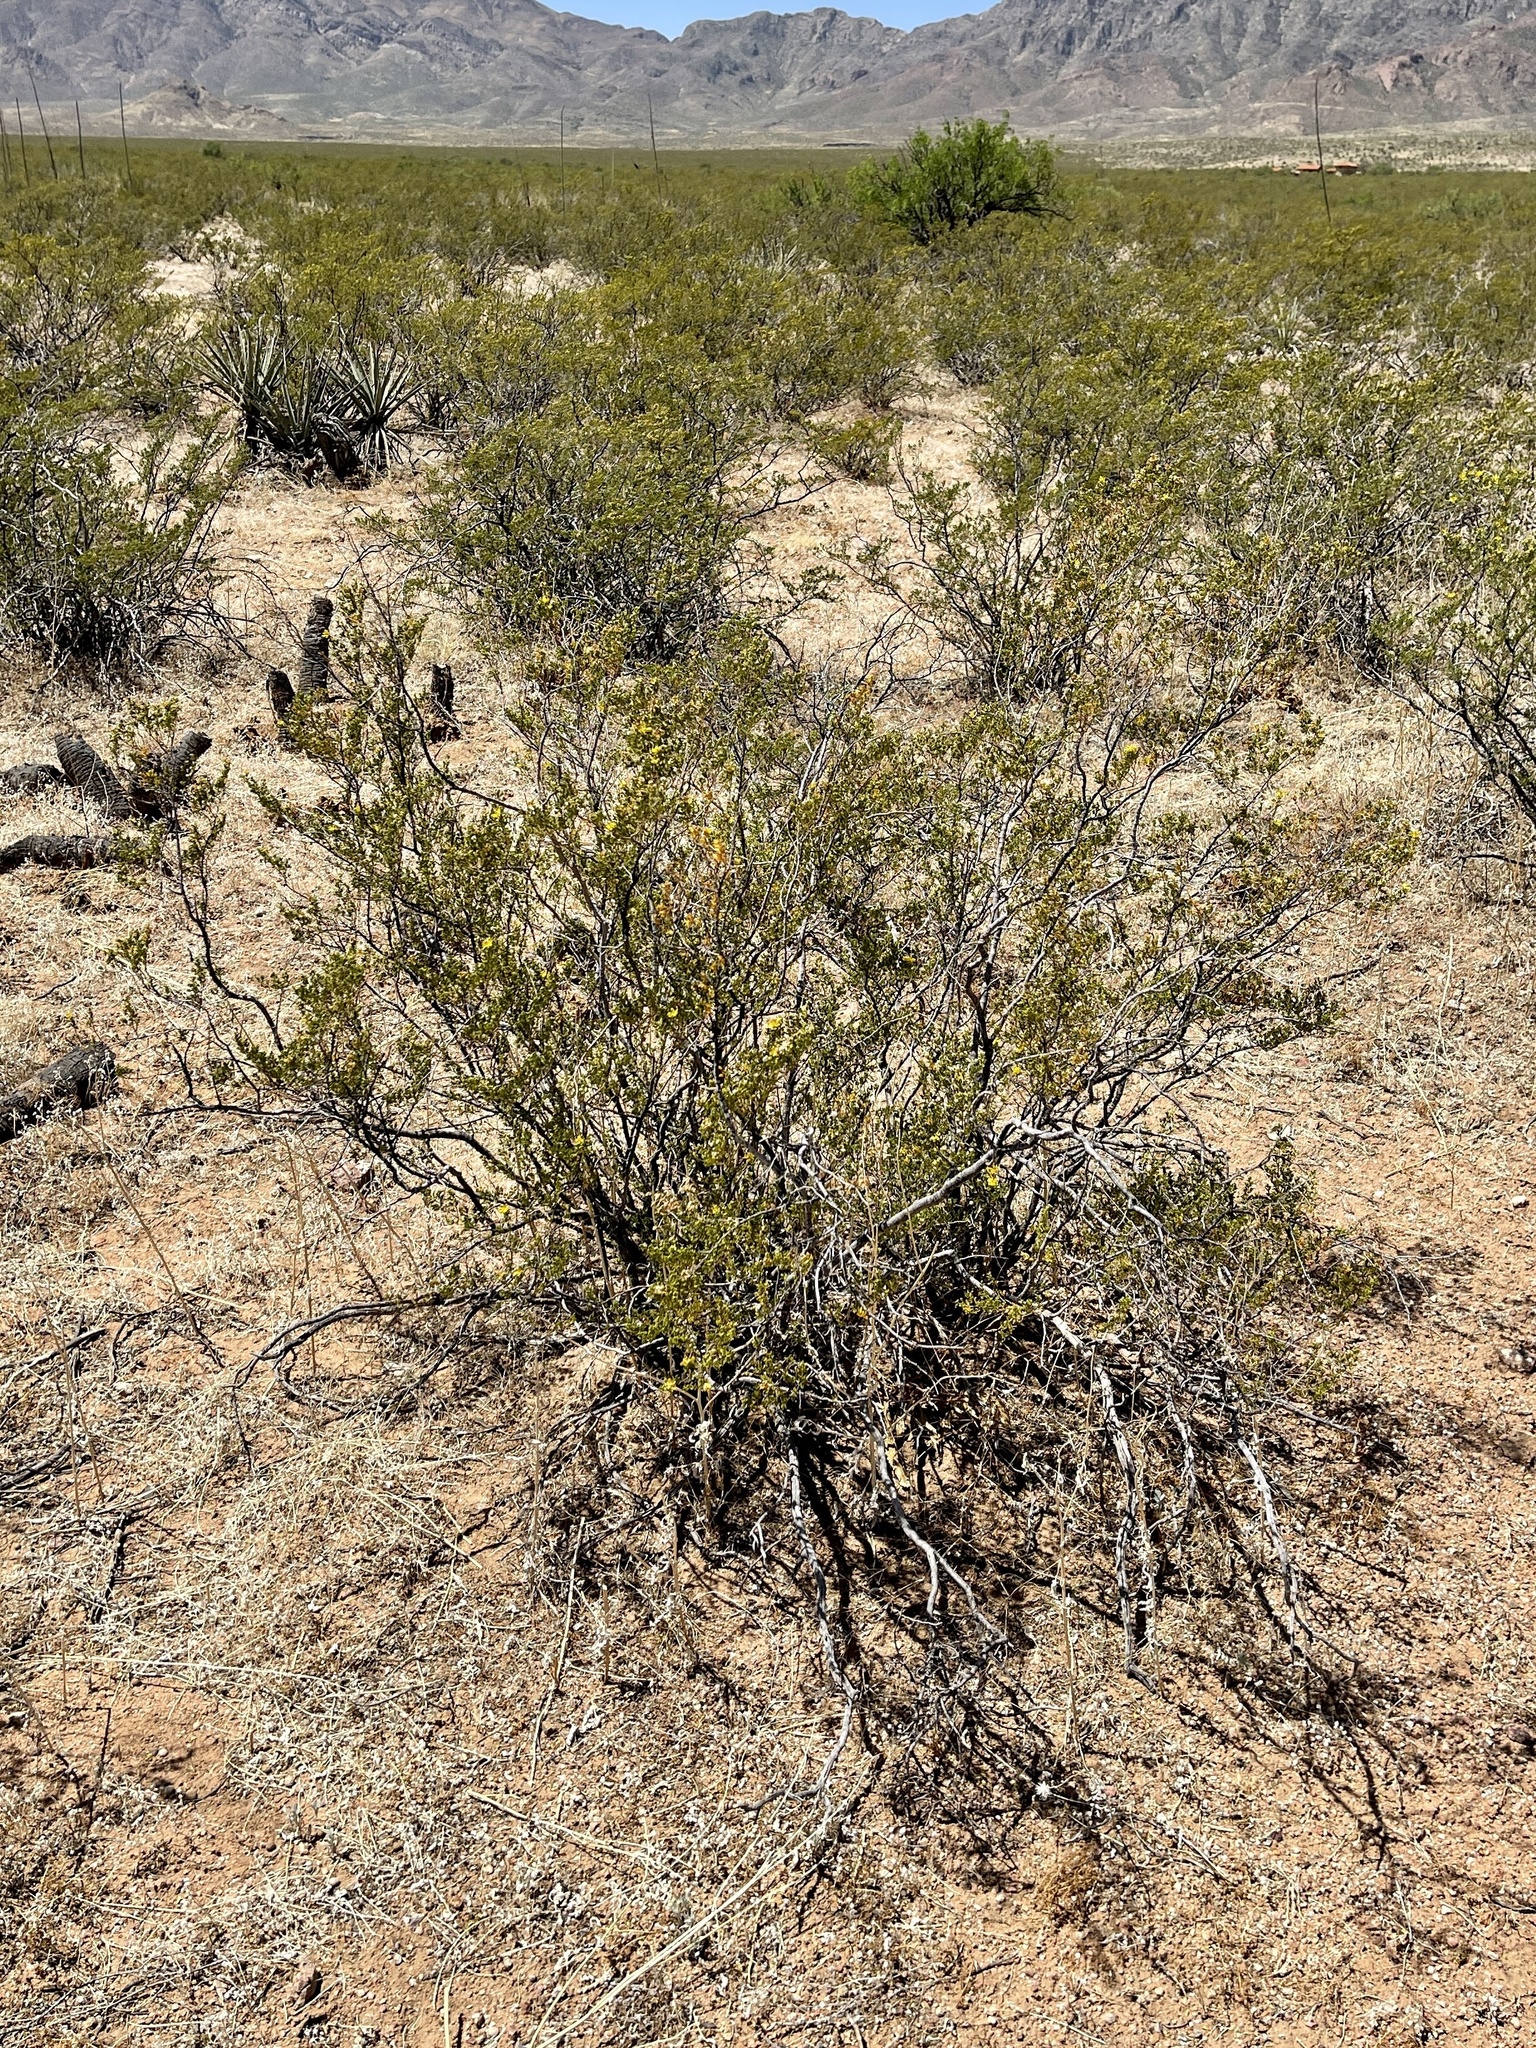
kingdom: Plantae
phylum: Tracheophyta
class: Magnoliopsida
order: Zygophyllales
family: Zygophyllaceae
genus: Larrea
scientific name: Larrea tridentata
